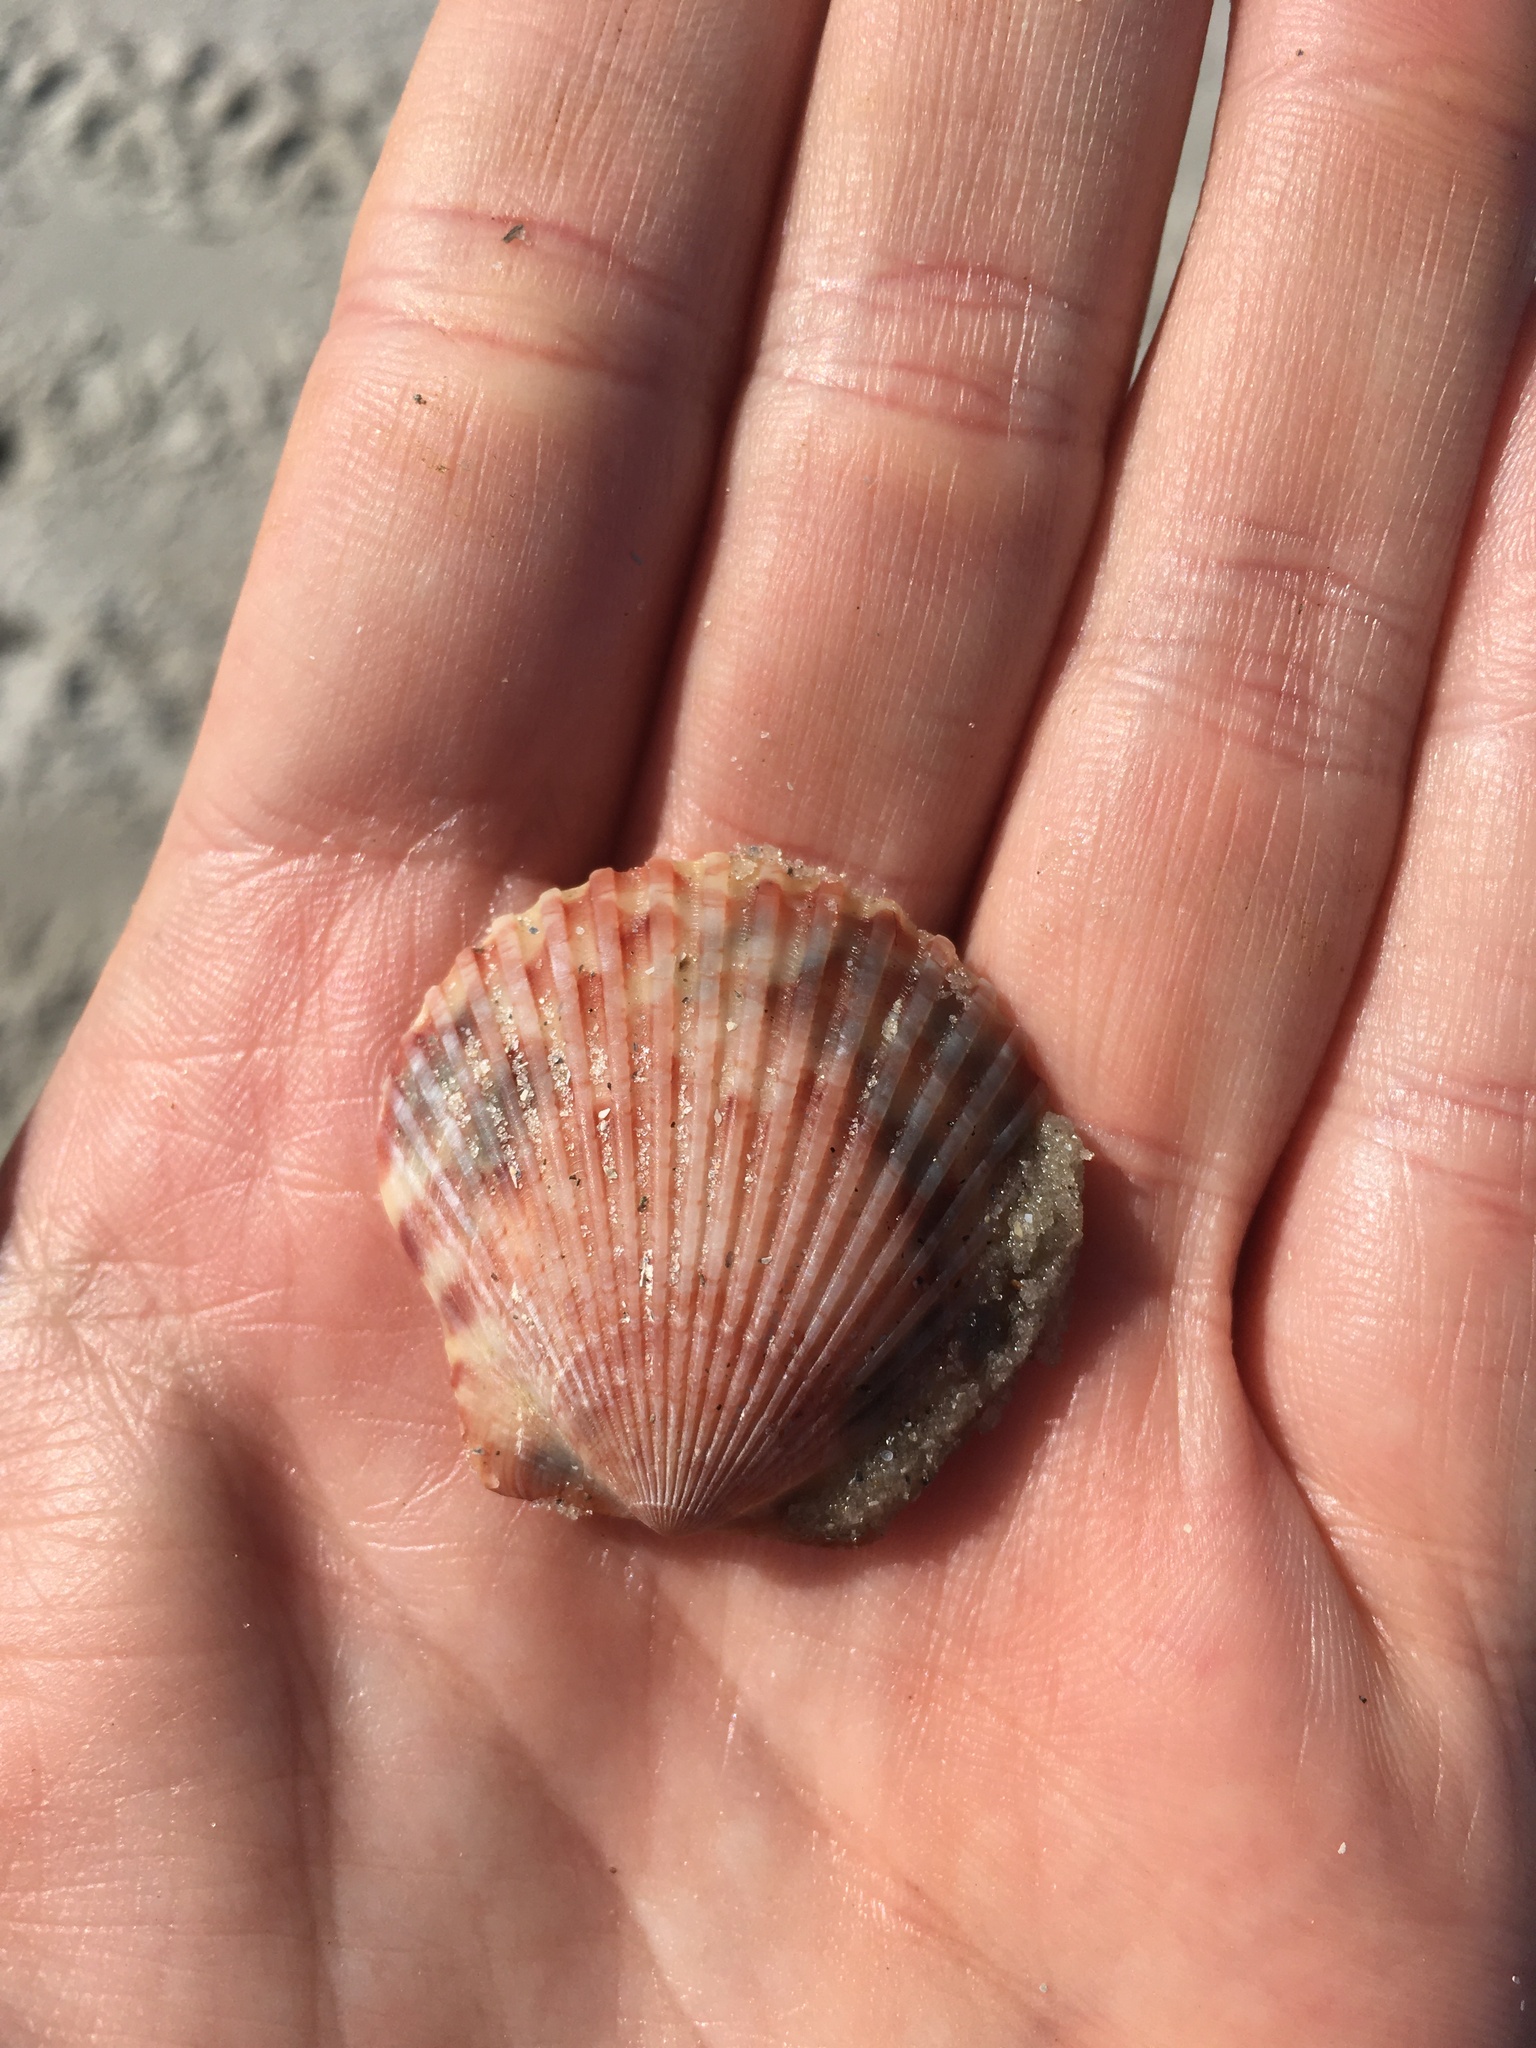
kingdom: Animalia
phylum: Mollusca
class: Bivalvia
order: Pectinida
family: Pectinidae
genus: Argopecten
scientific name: Argopecten gibbus
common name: Atlantic calico scallop
